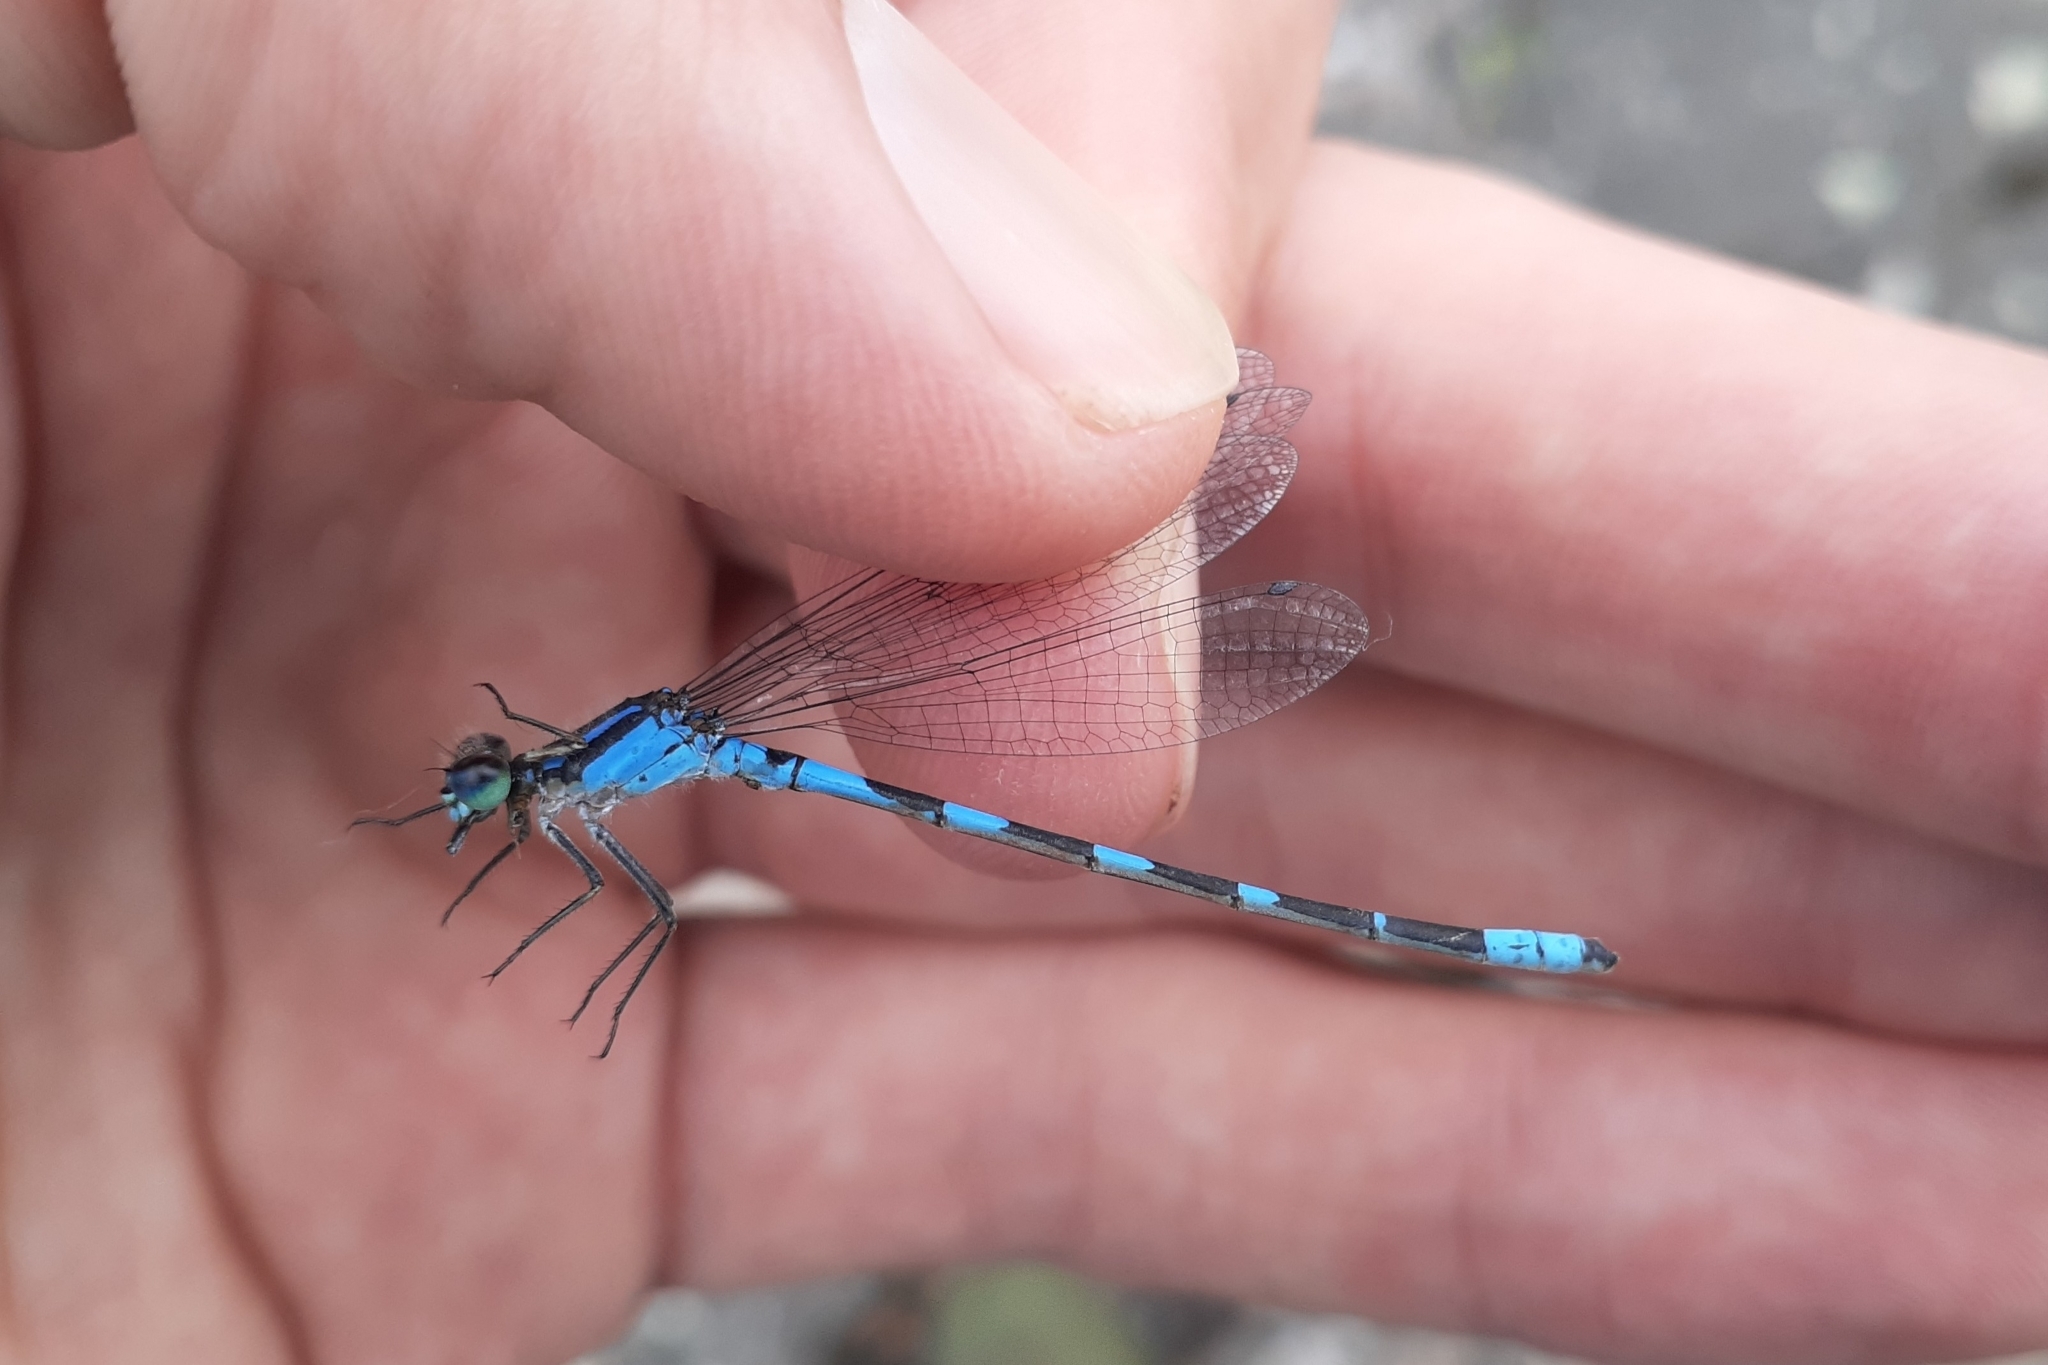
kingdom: Animalia
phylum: Arthropoda
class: Insecta
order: Odonata
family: Coenagrionidae
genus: Enallagma
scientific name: Enallagma carunculatum
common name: Tule bluet
